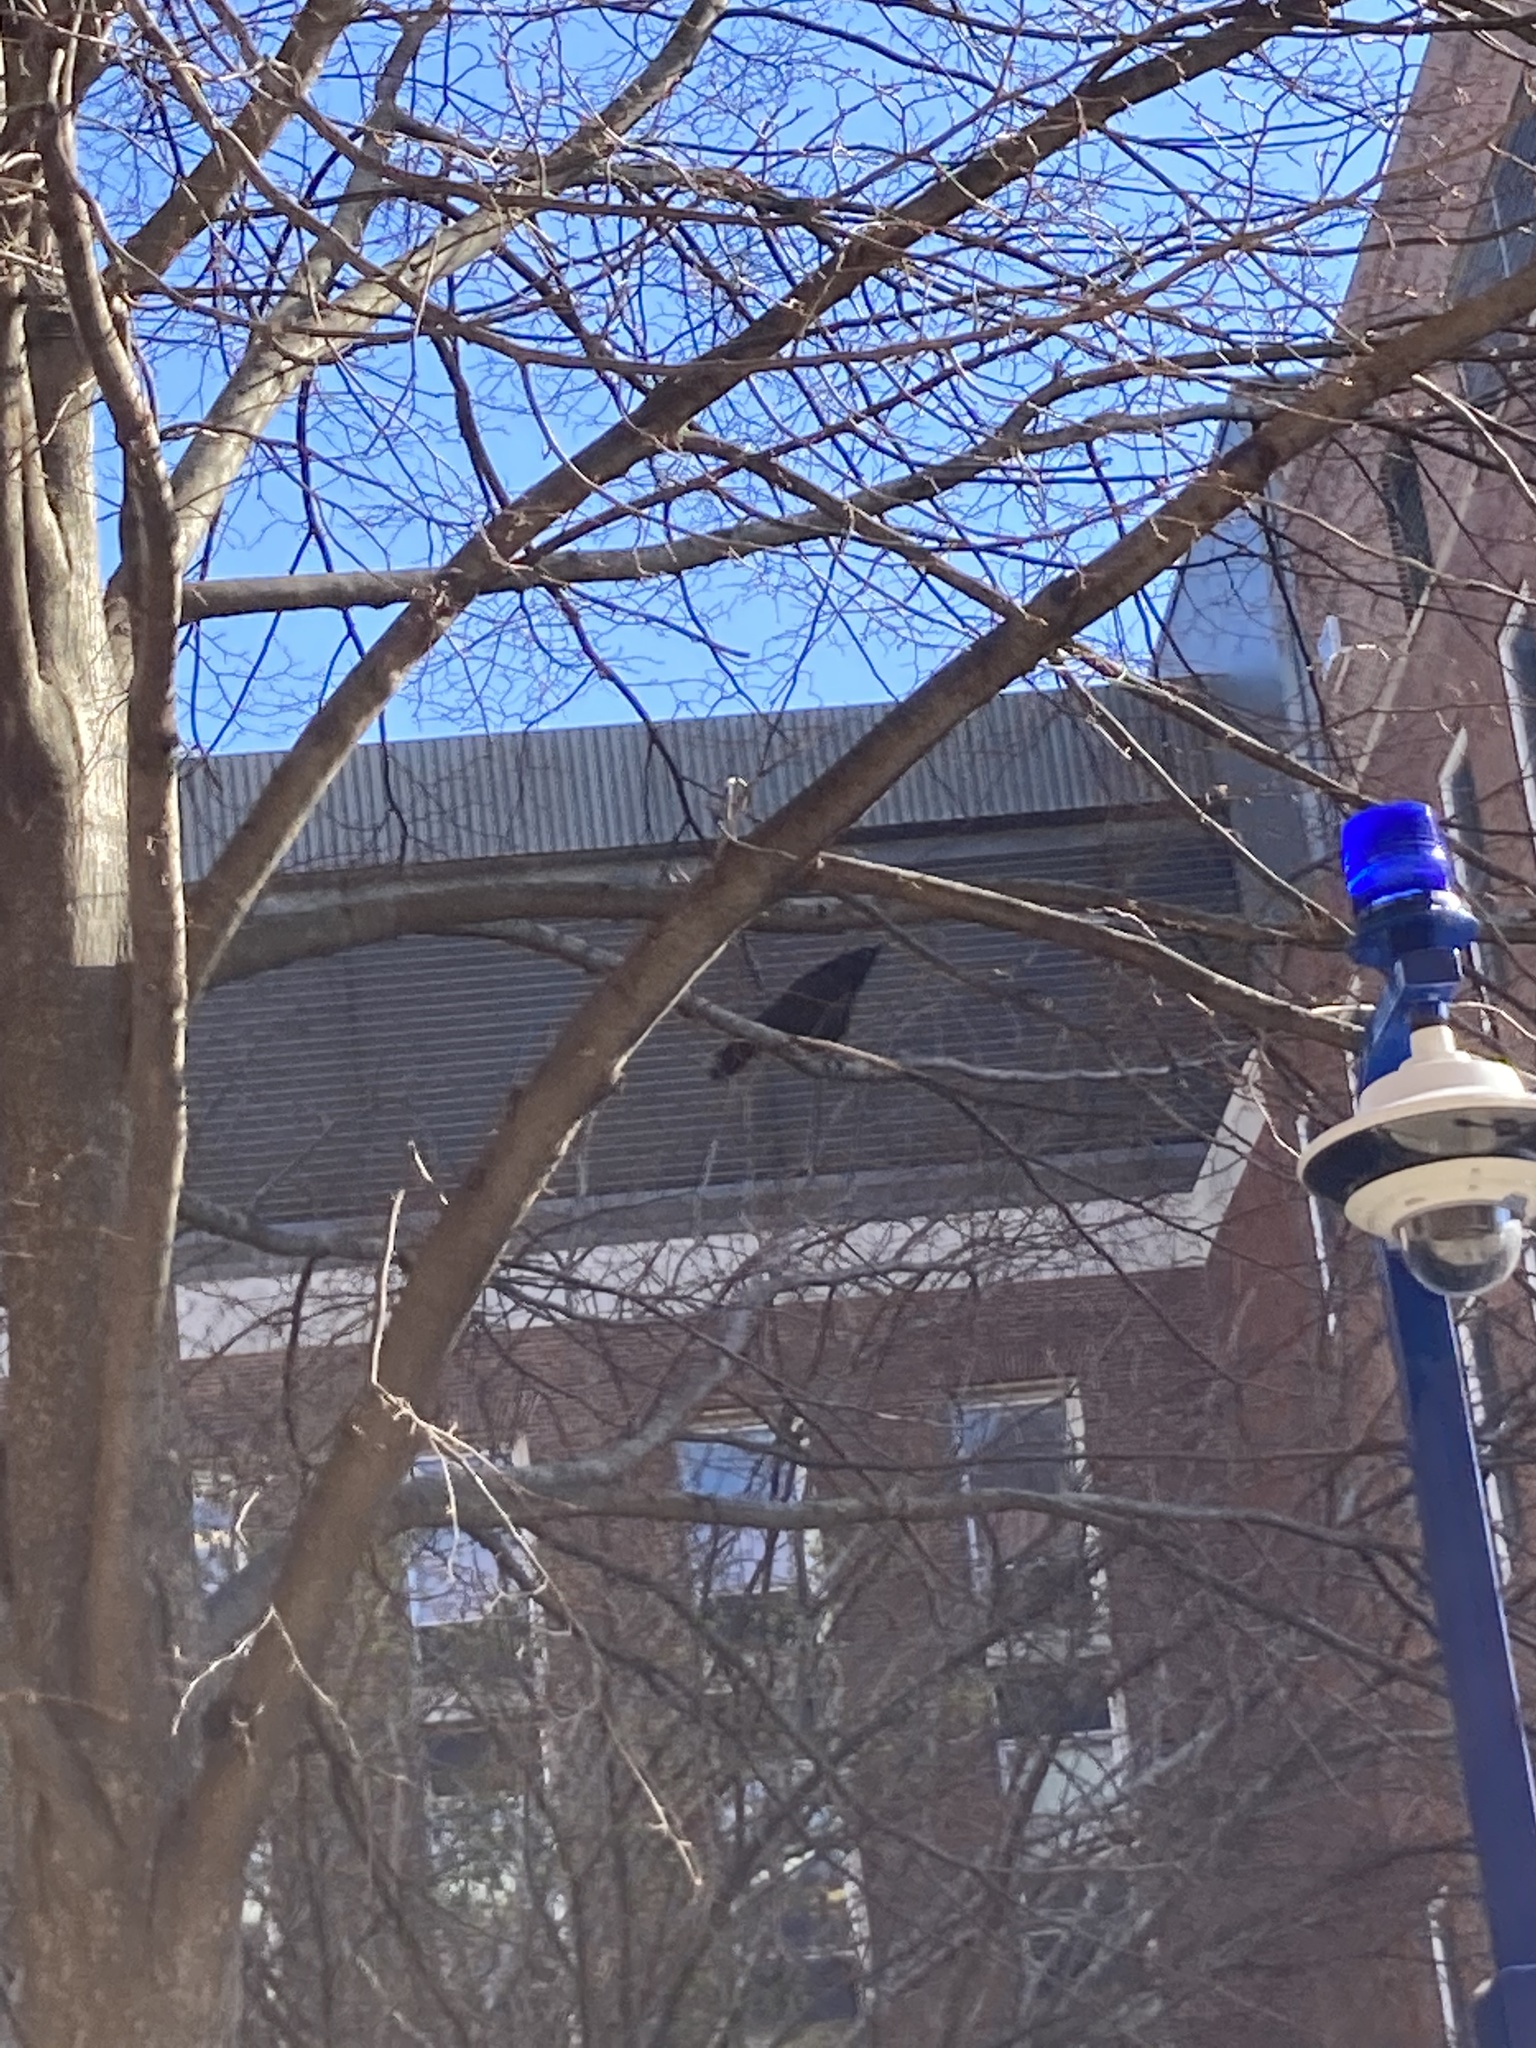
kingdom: Animalia
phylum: Chordata
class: Aves
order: Passeriformes
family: Corvidae
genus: Corvus
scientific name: Corvus brachyrhynchos
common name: American crow
